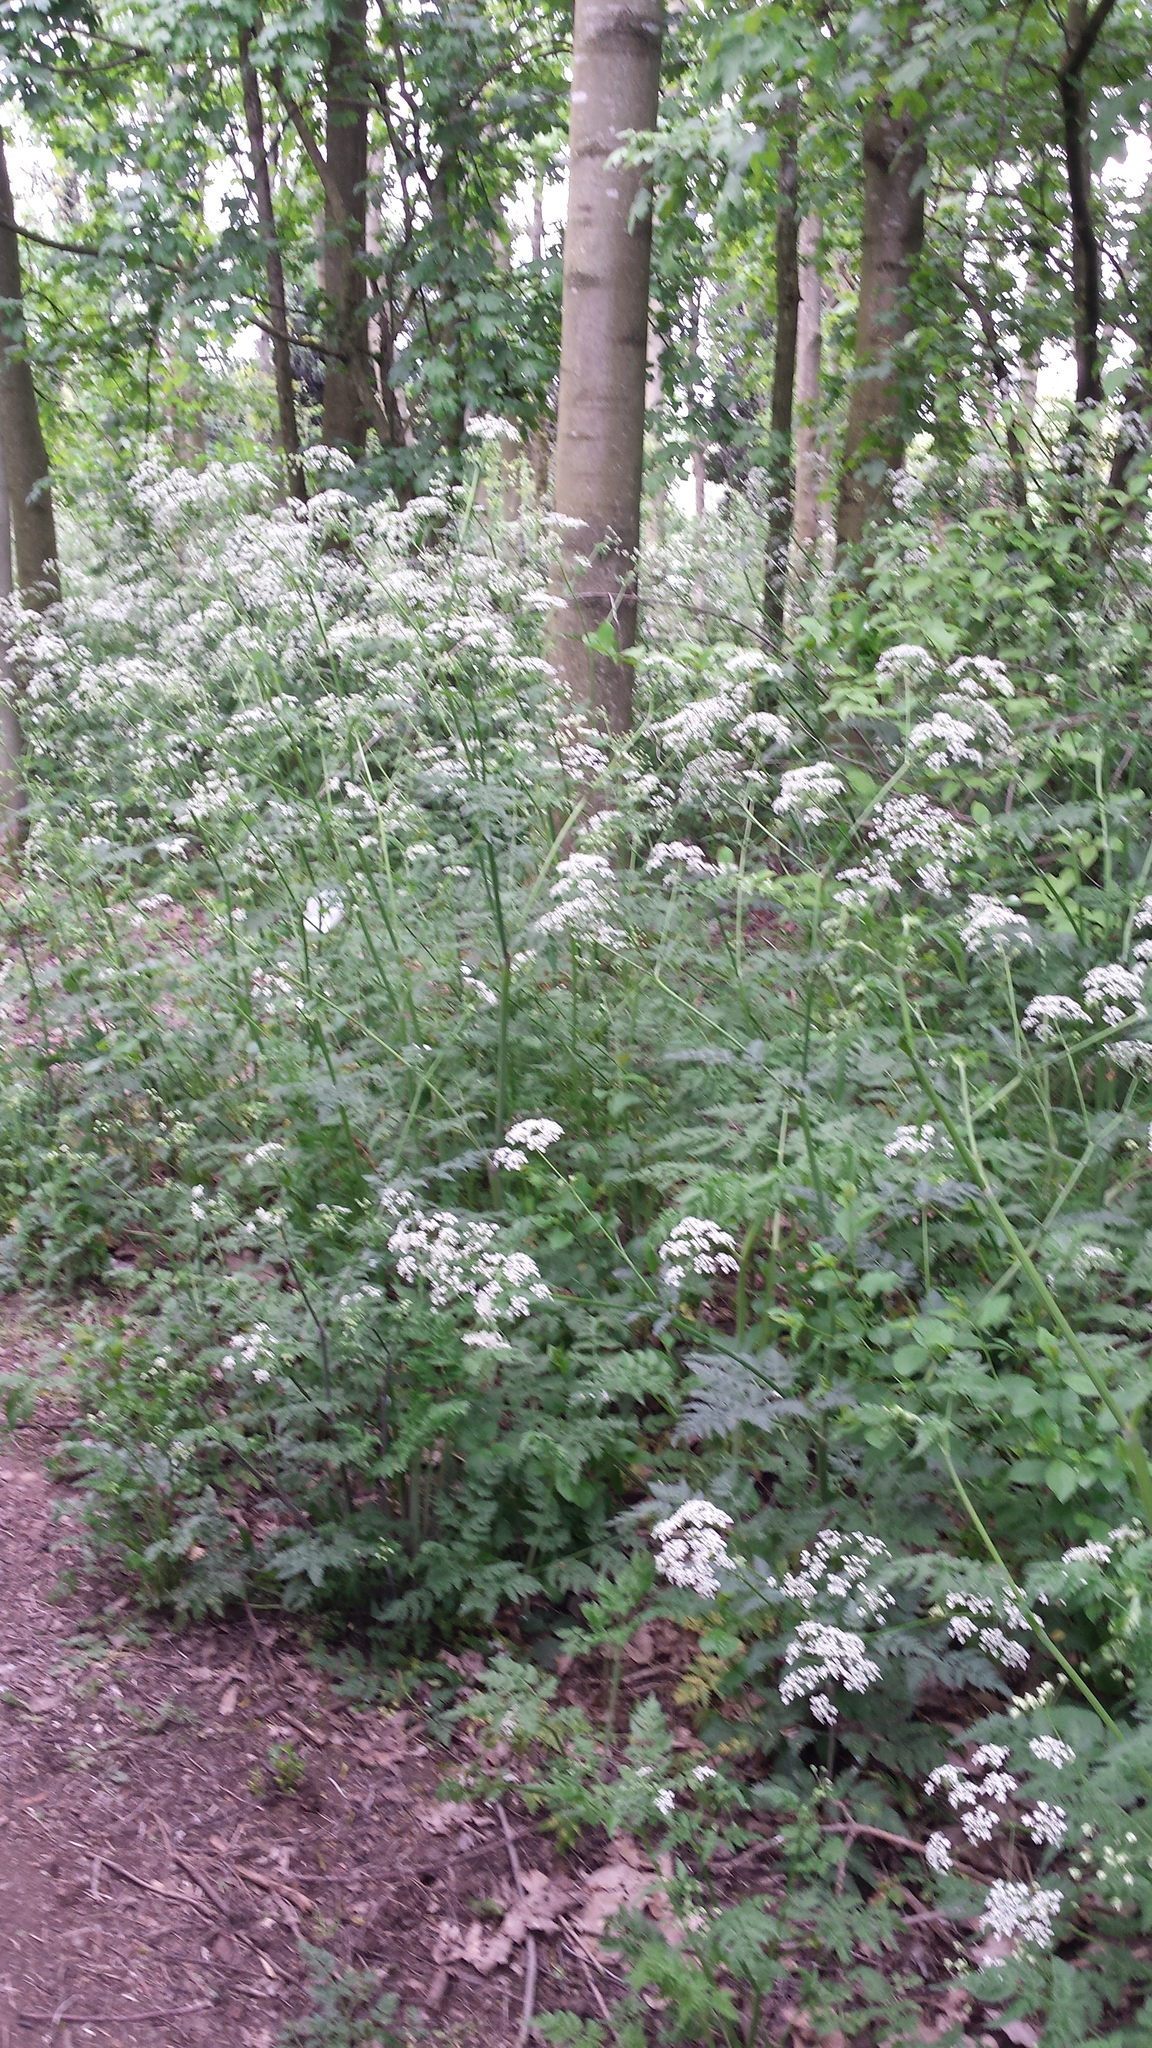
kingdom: Plantae
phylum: Tracheophyta
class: Magnoliopsida
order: Apiales
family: Apiaceae
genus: Anthriscus
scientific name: Anthriscus sylvestris
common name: Cow parsley
